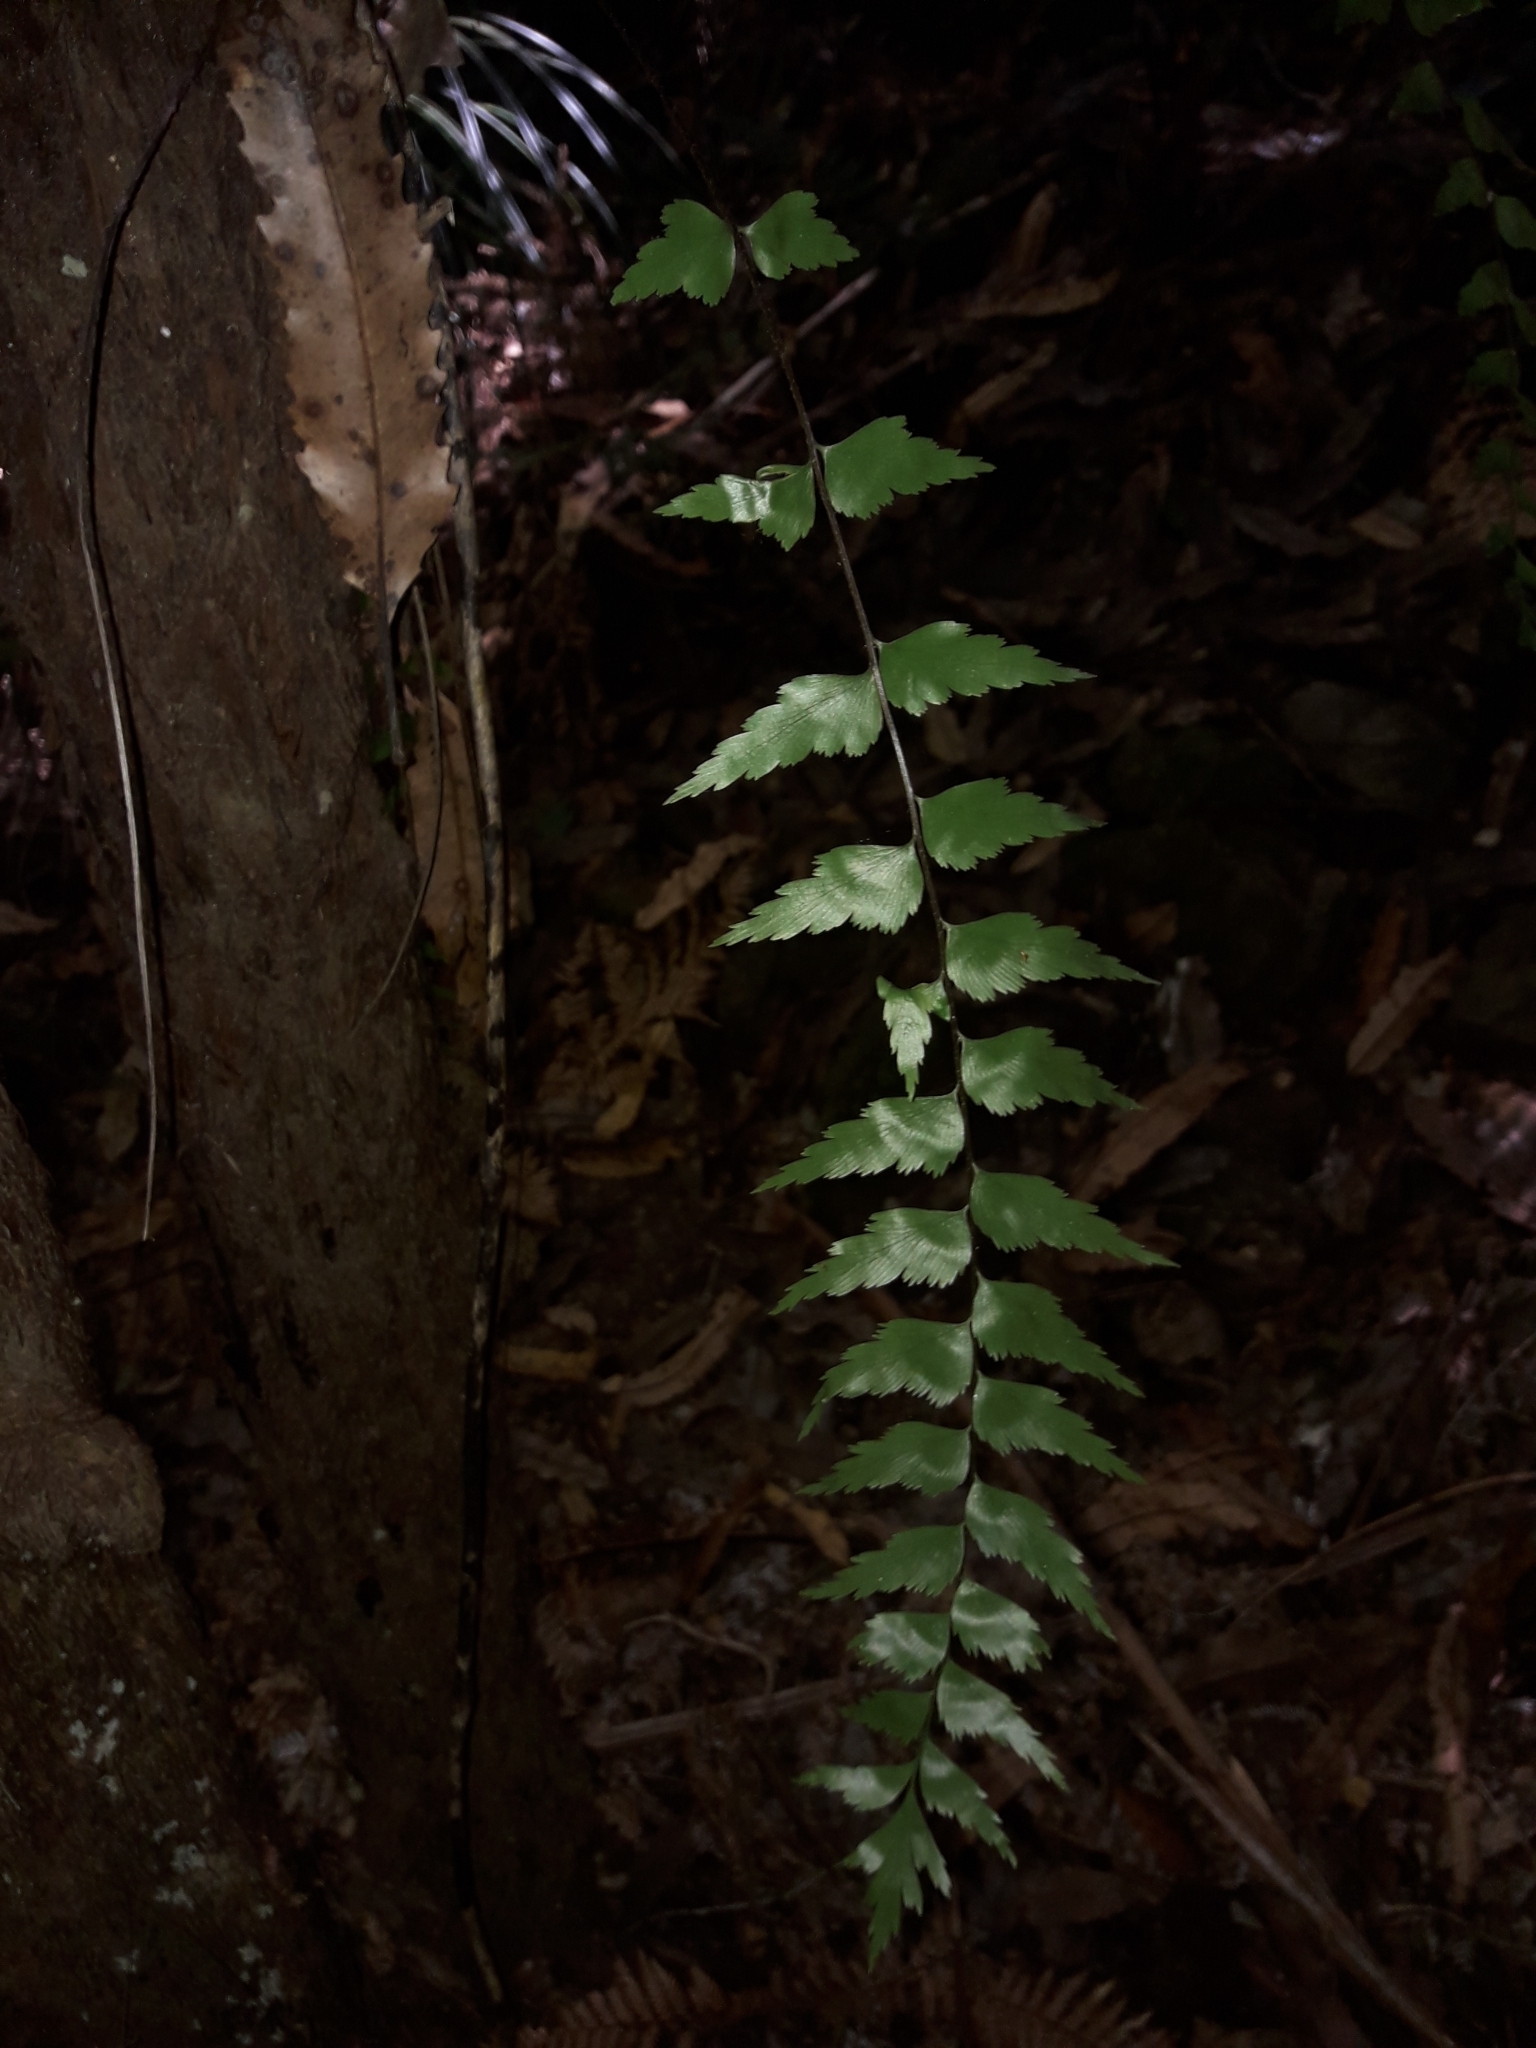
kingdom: Plantae
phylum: Tracheophyta
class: Polypodiopsida
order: Polypodiales
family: Aspleniaceae
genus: Asplenium
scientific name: Asplenium polyodon
